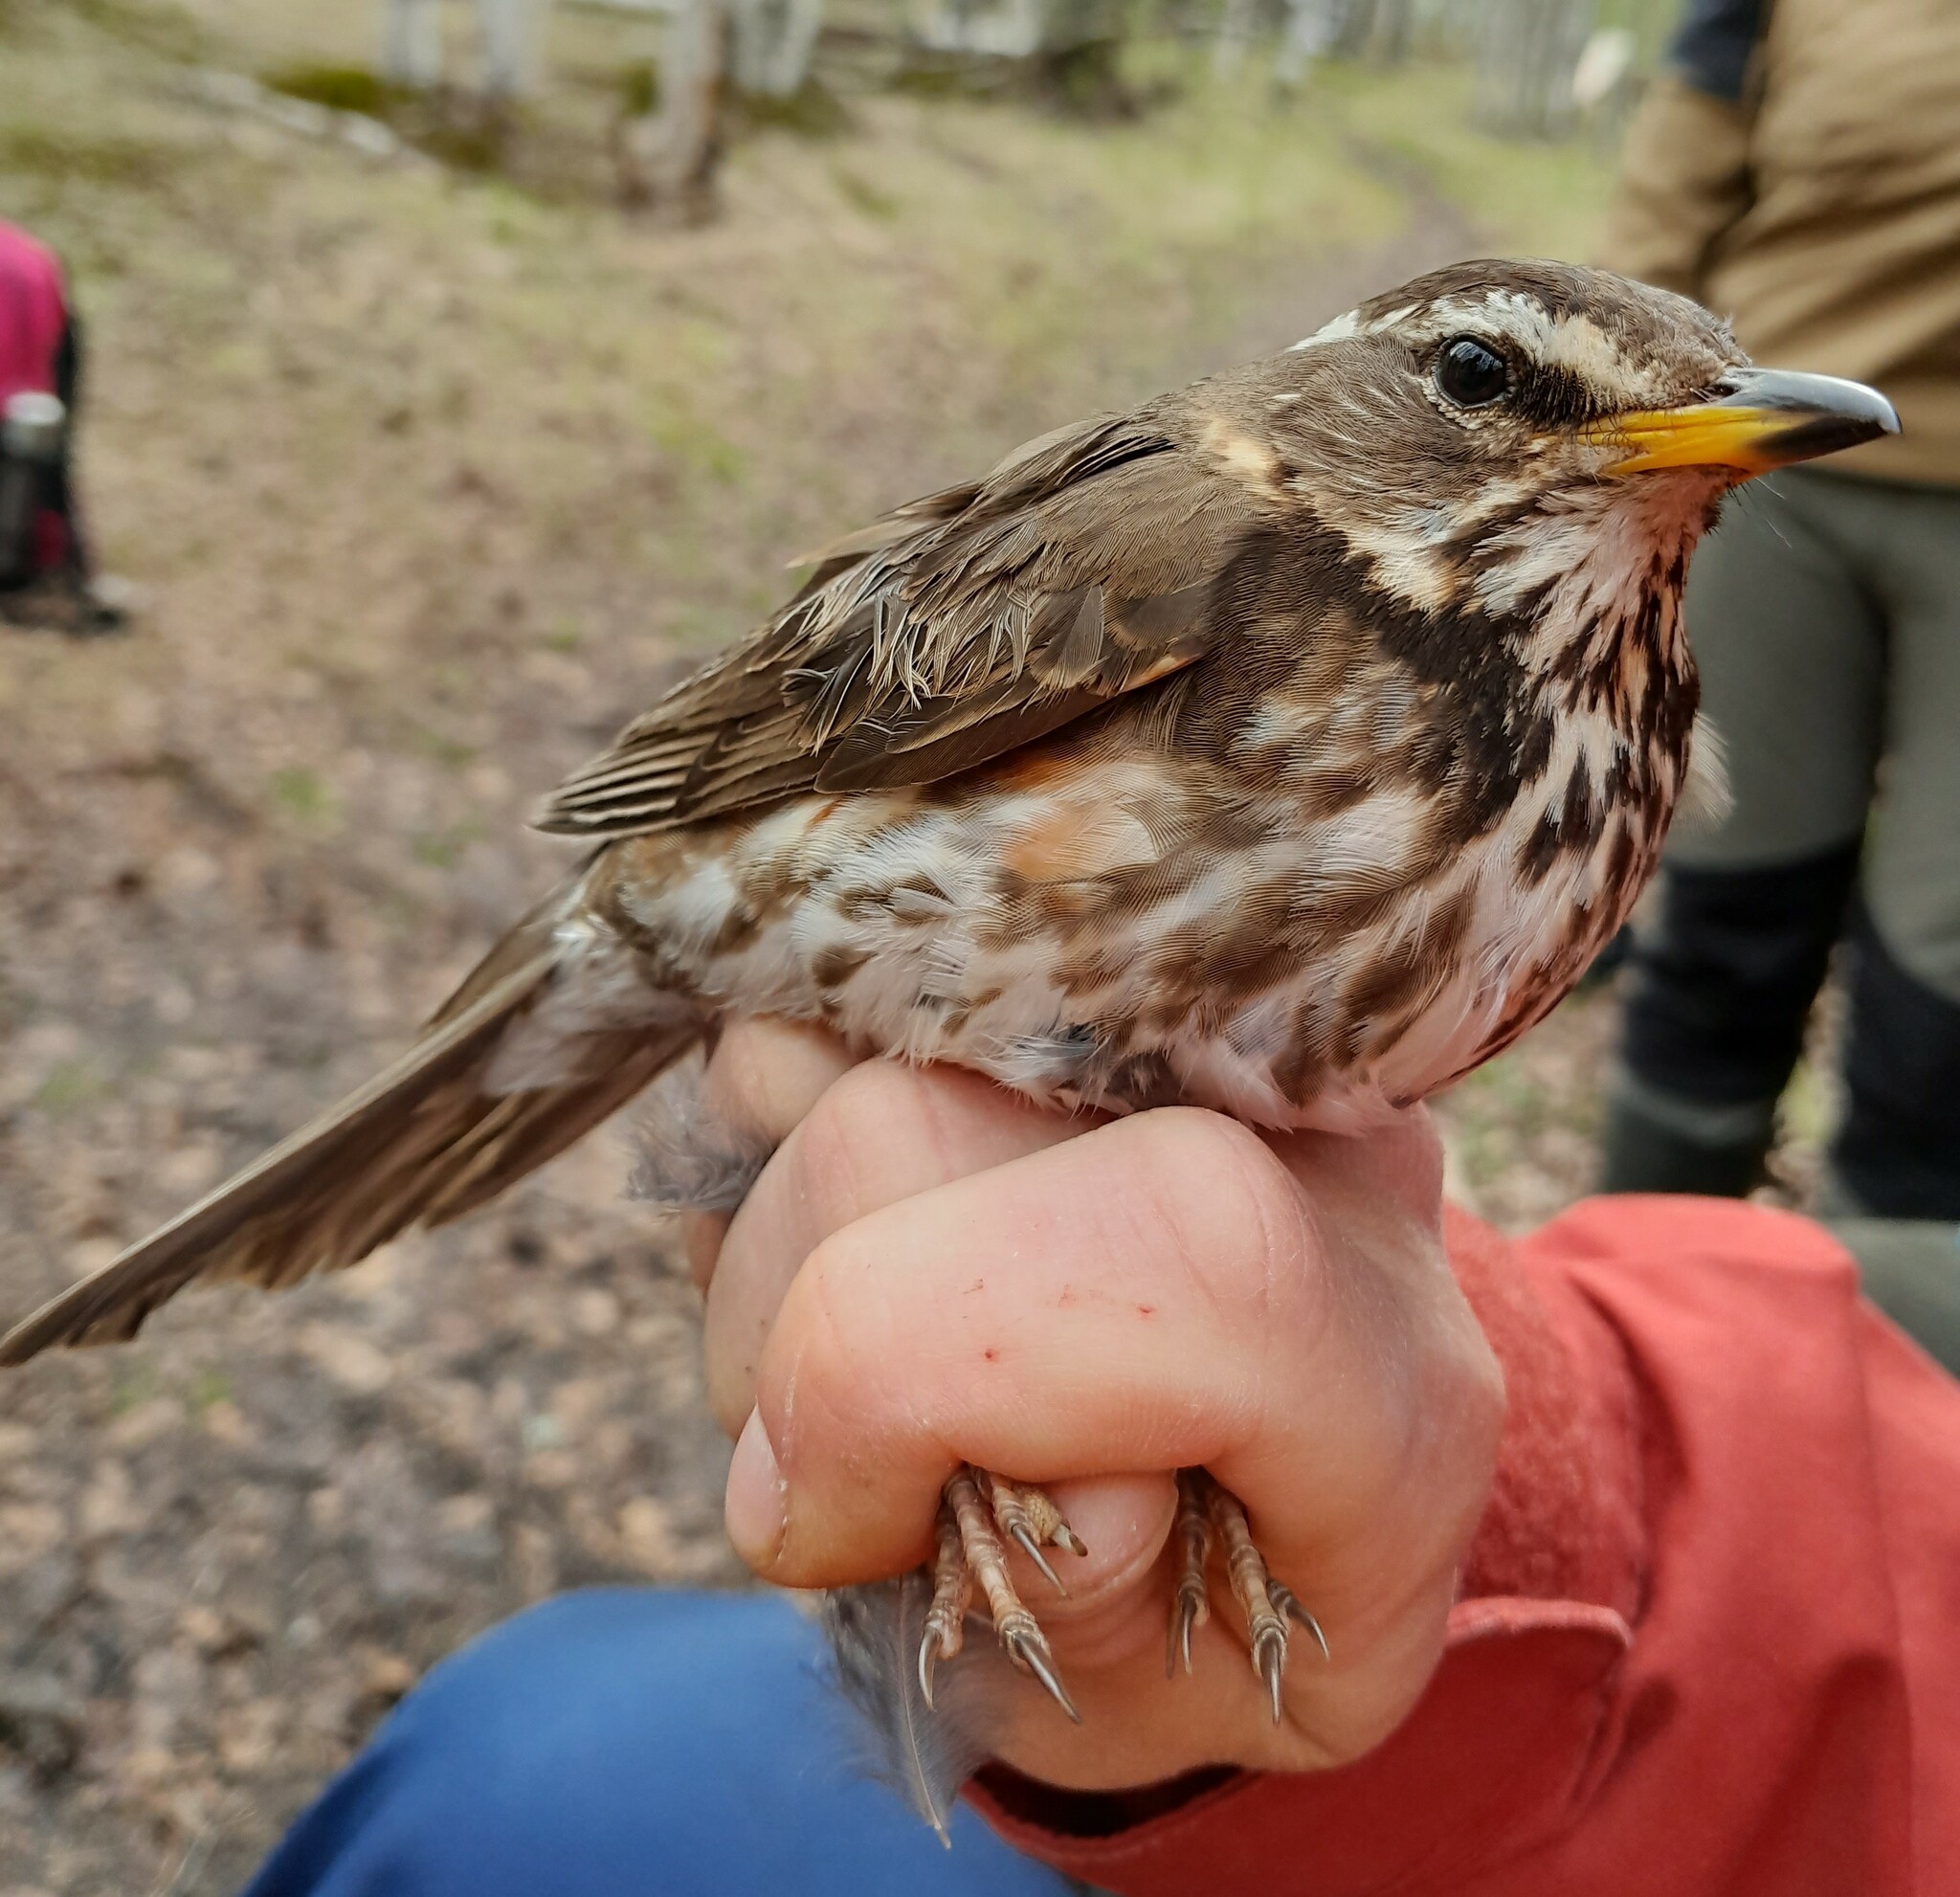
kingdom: Animalia
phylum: Chordata
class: Aves
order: Passeriformes
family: Turdidae
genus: Turdus
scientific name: Turdus iliacus
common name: Redwing
